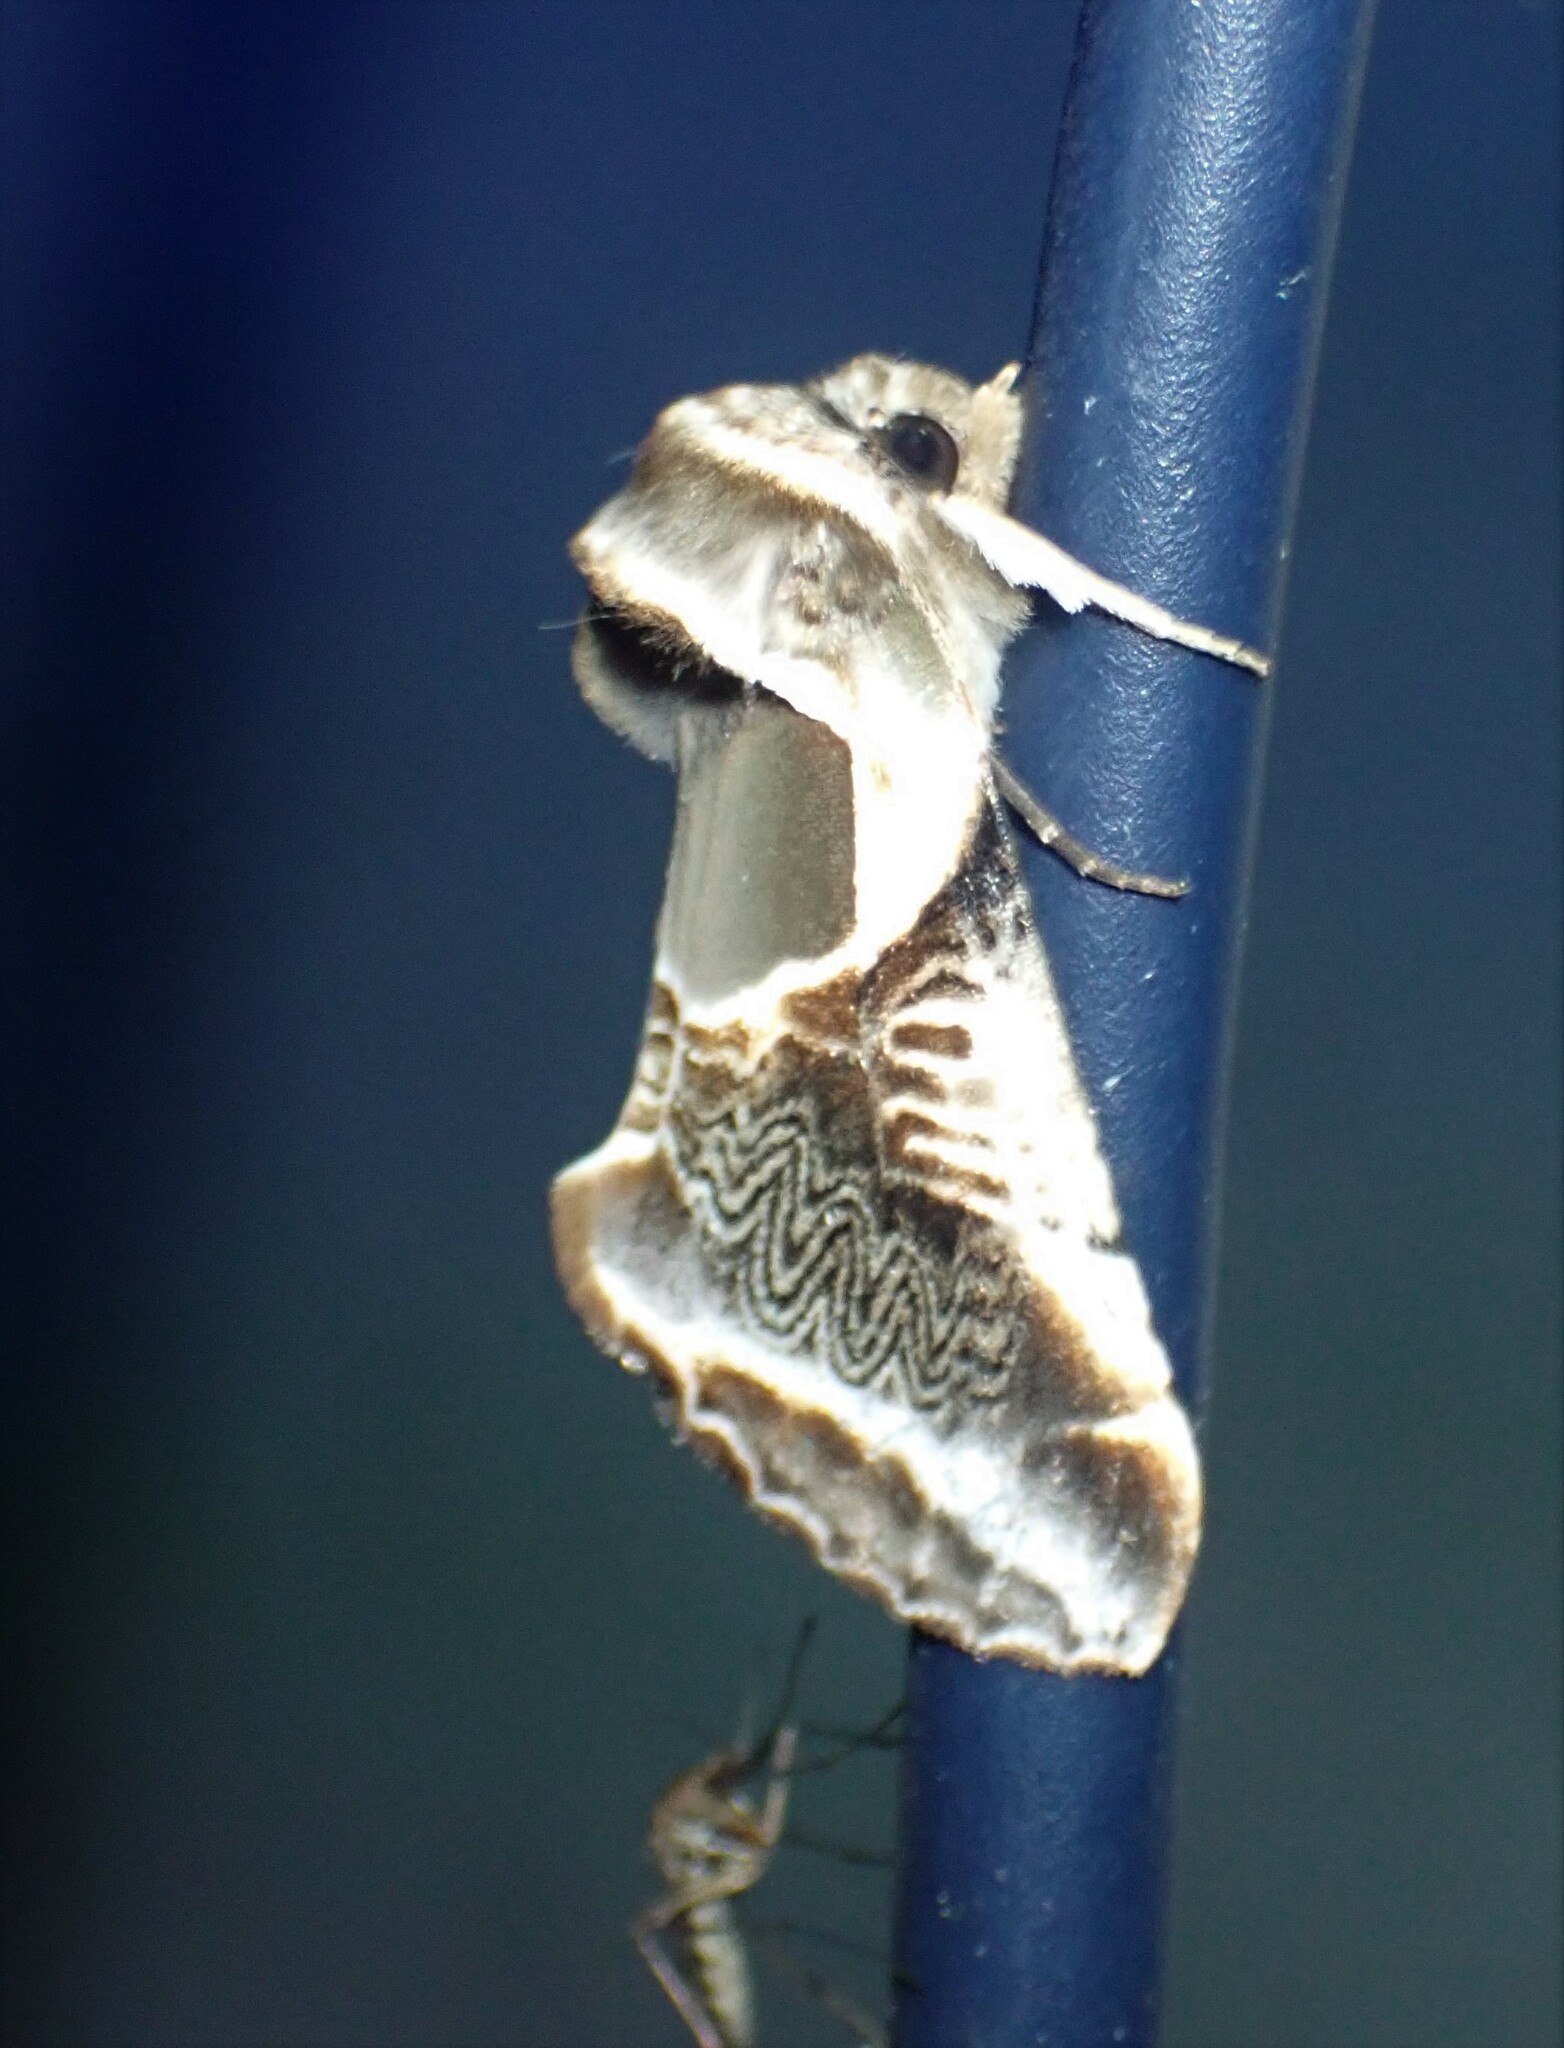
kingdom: Animalia
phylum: Arthropoda
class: Insecta
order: Lepidoptera
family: Drepanidae
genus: Habrosyne
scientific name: Habrosyne scripta
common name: Lettered habrosyne moth
